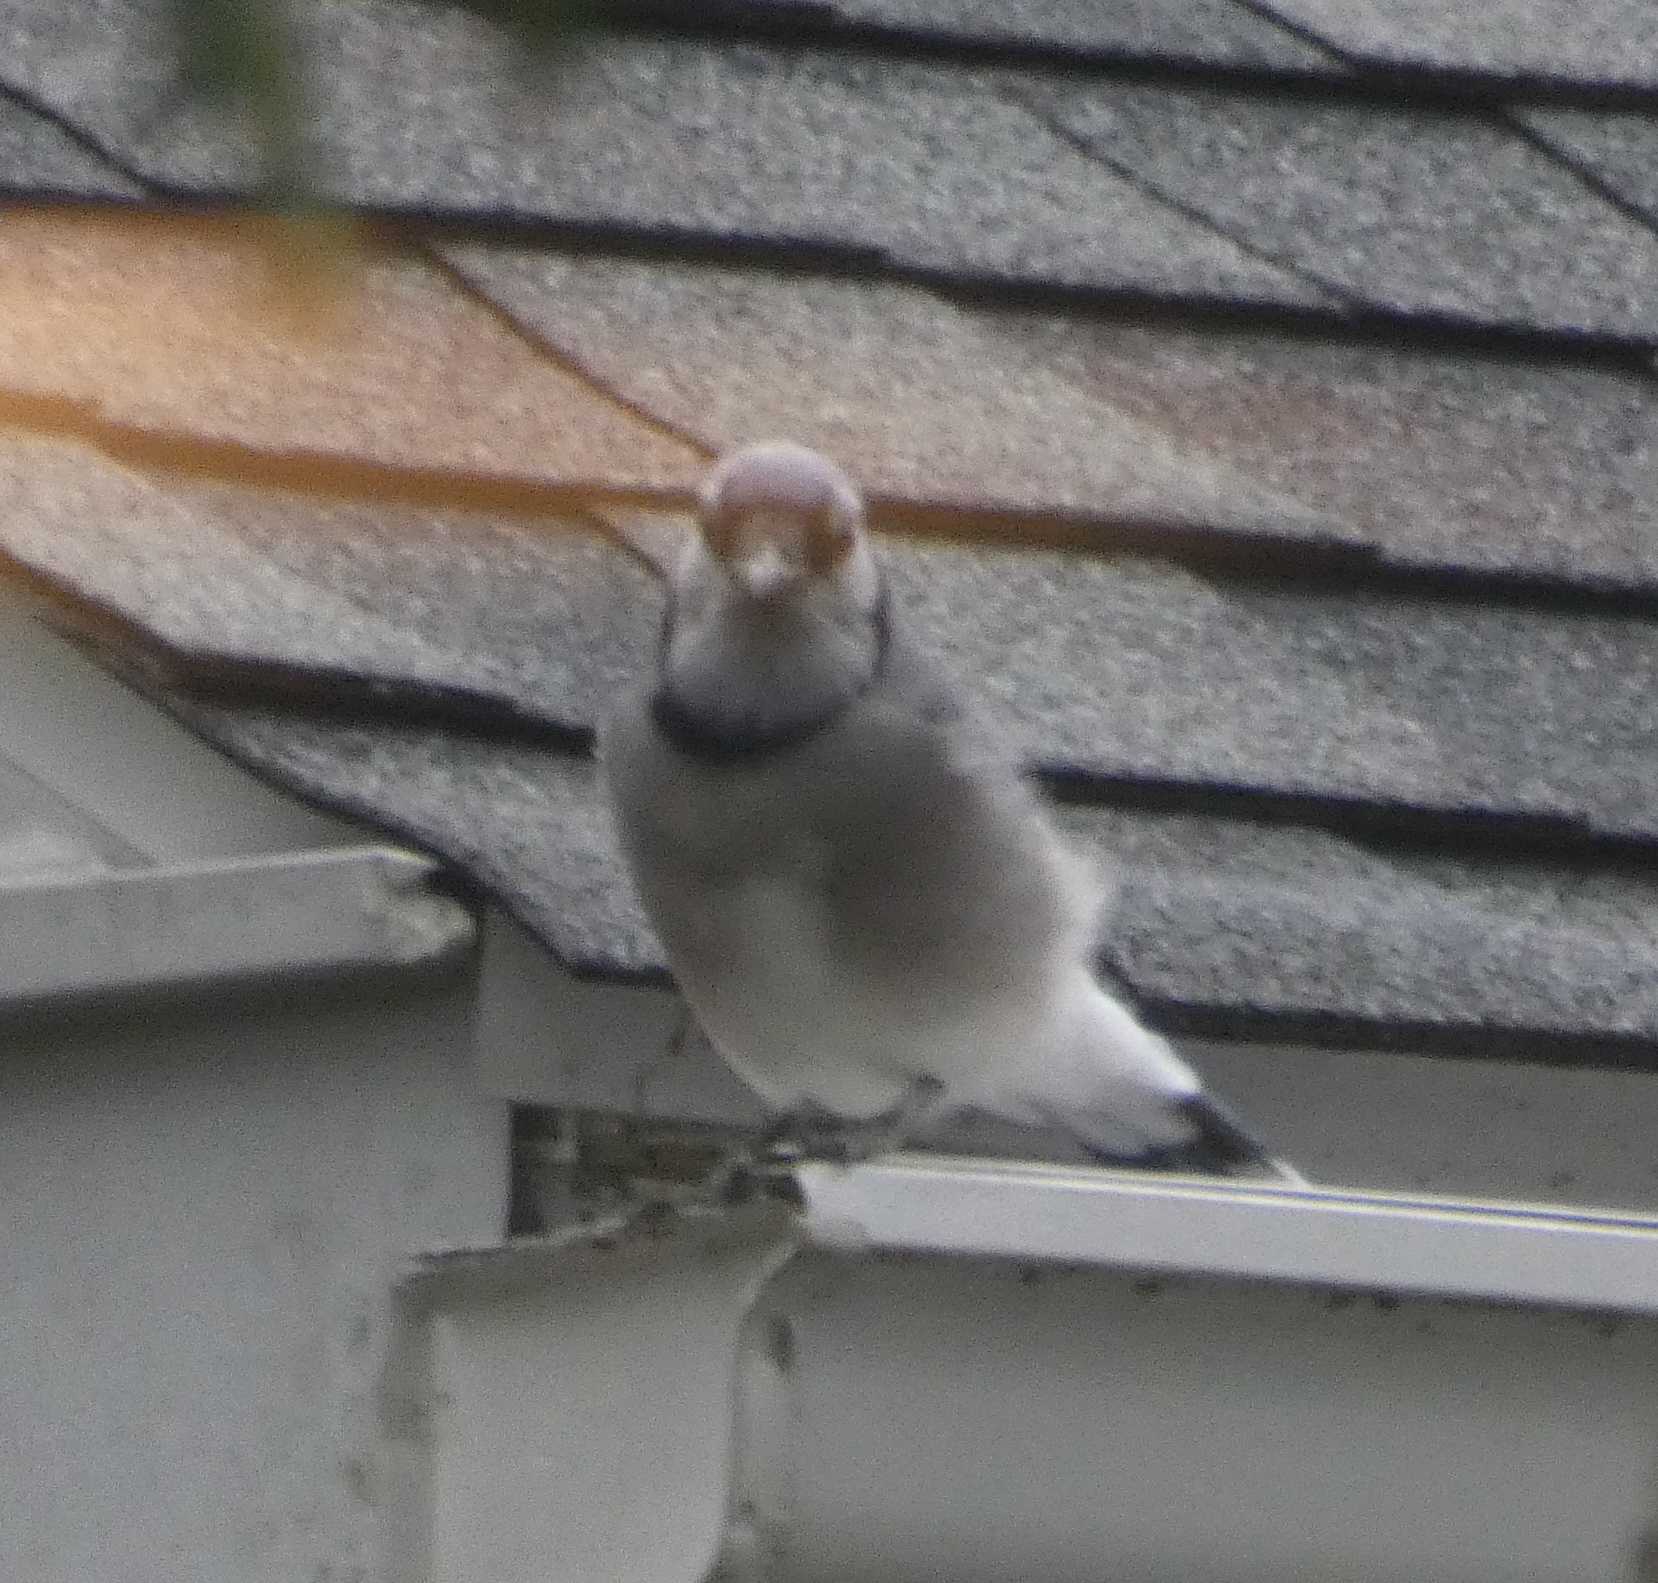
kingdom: Animalia
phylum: Chordata
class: Aves
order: Passeriformes
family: Corvidae
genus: Cyanocitta
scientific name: Cyanocitta cristata
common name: Blue jay
